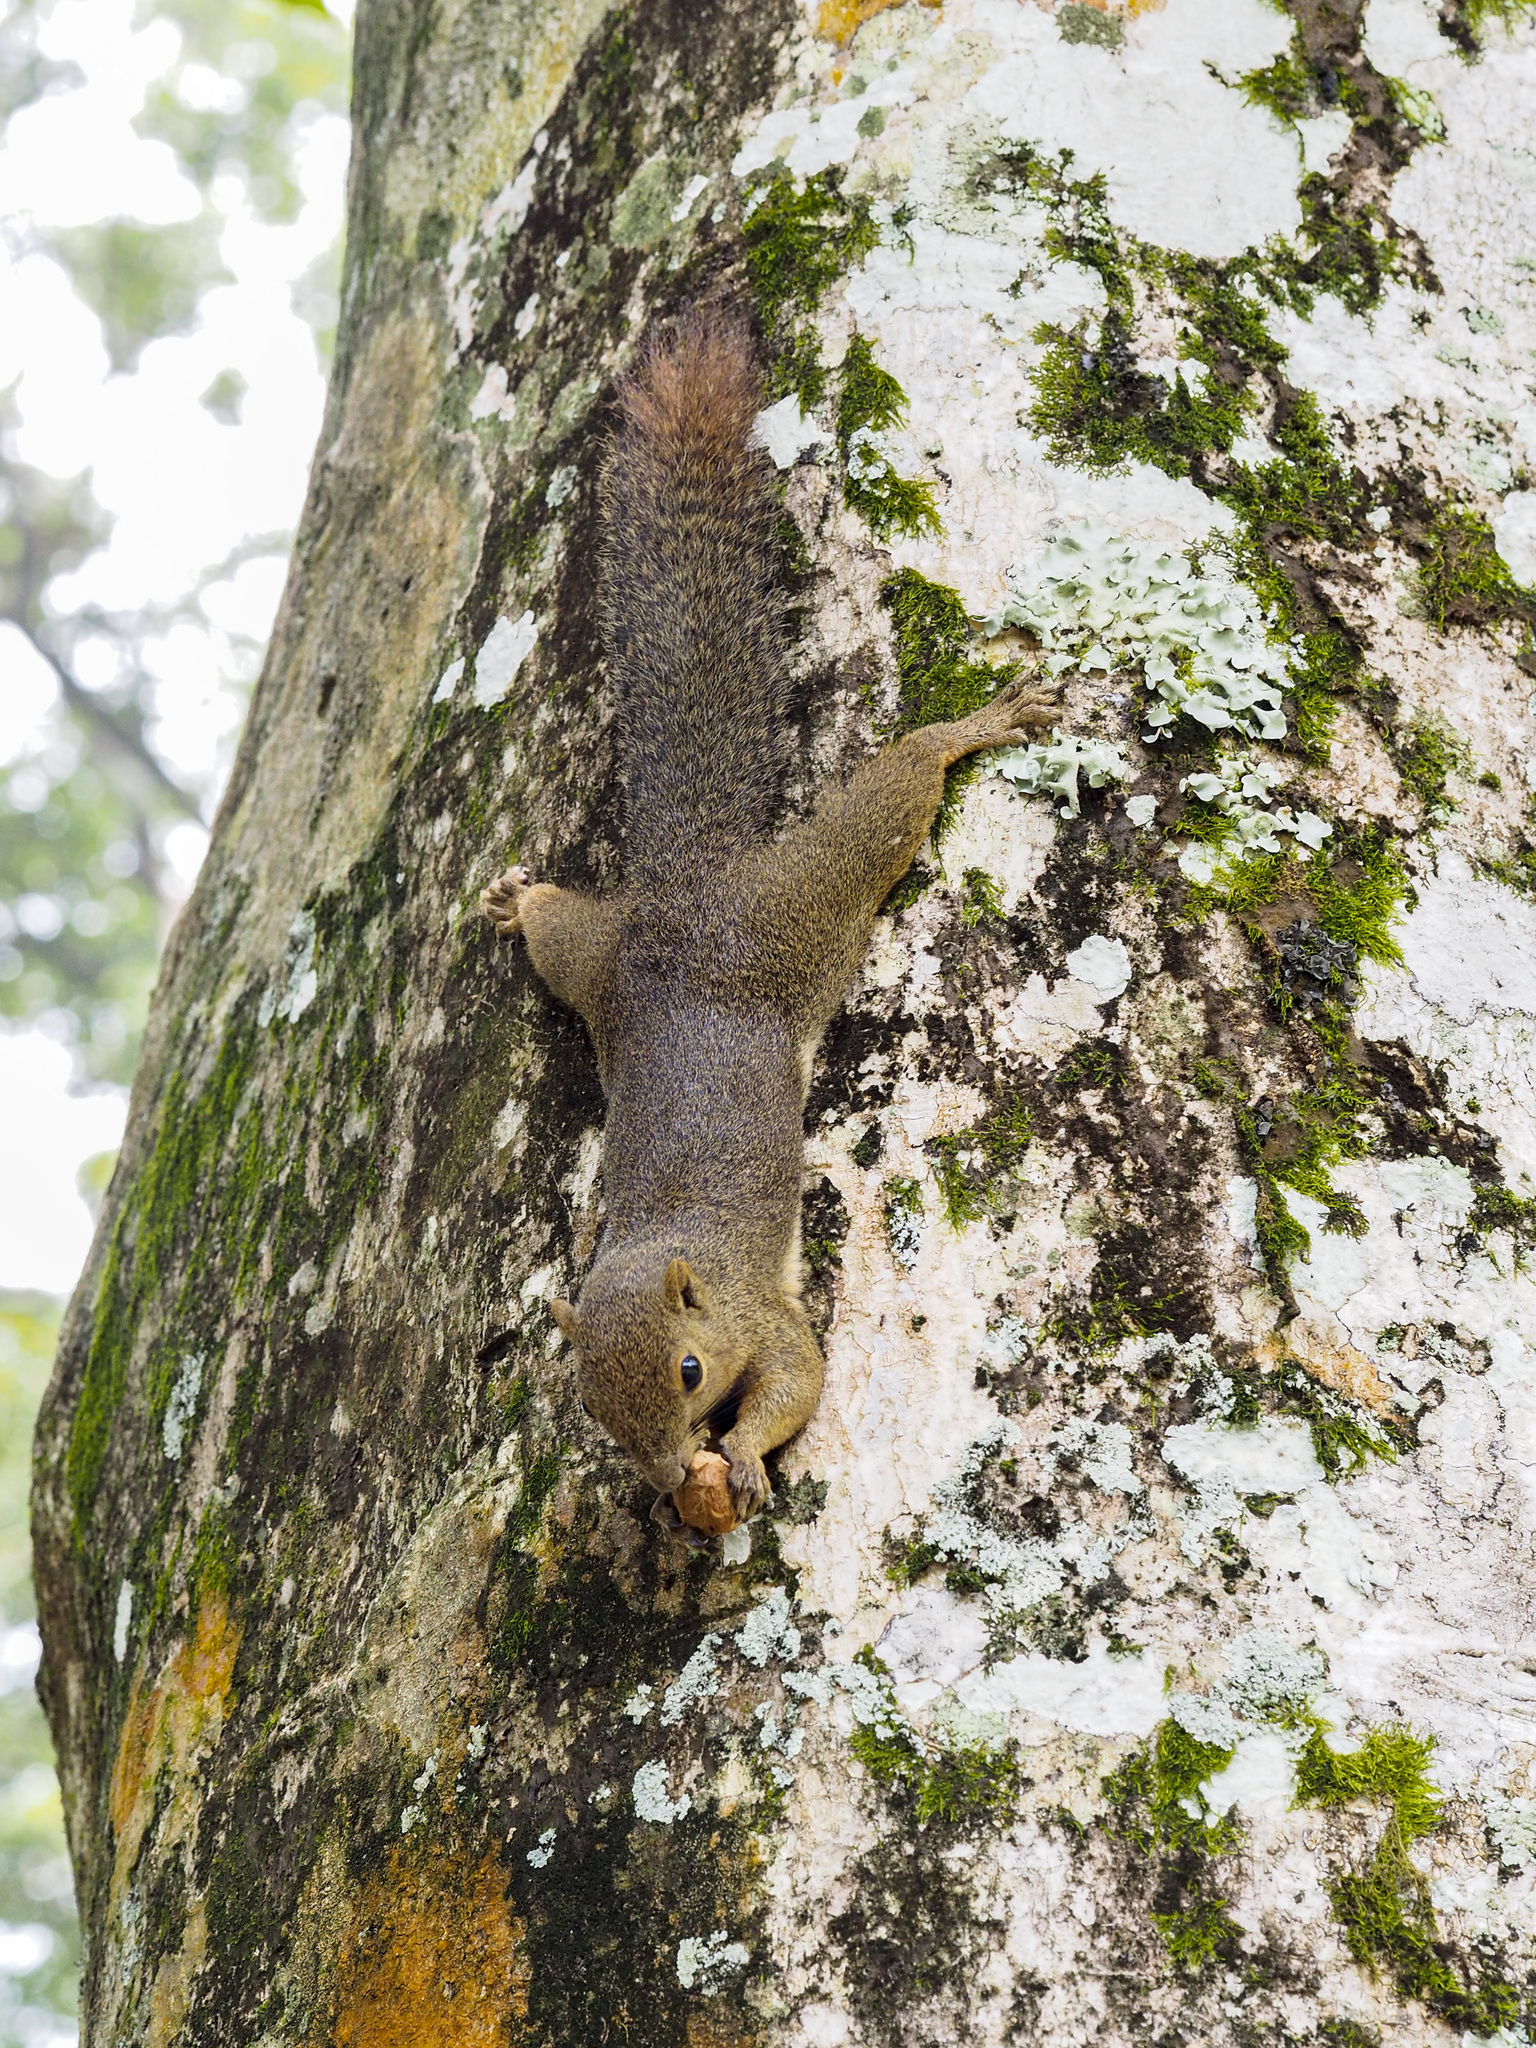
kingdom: Animalia
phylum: Chordata
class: Mammalia
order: Rodentia
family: Sciuridae
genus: Callosciurus
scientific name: Callosciurus notatus
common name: Plantain squirrel
